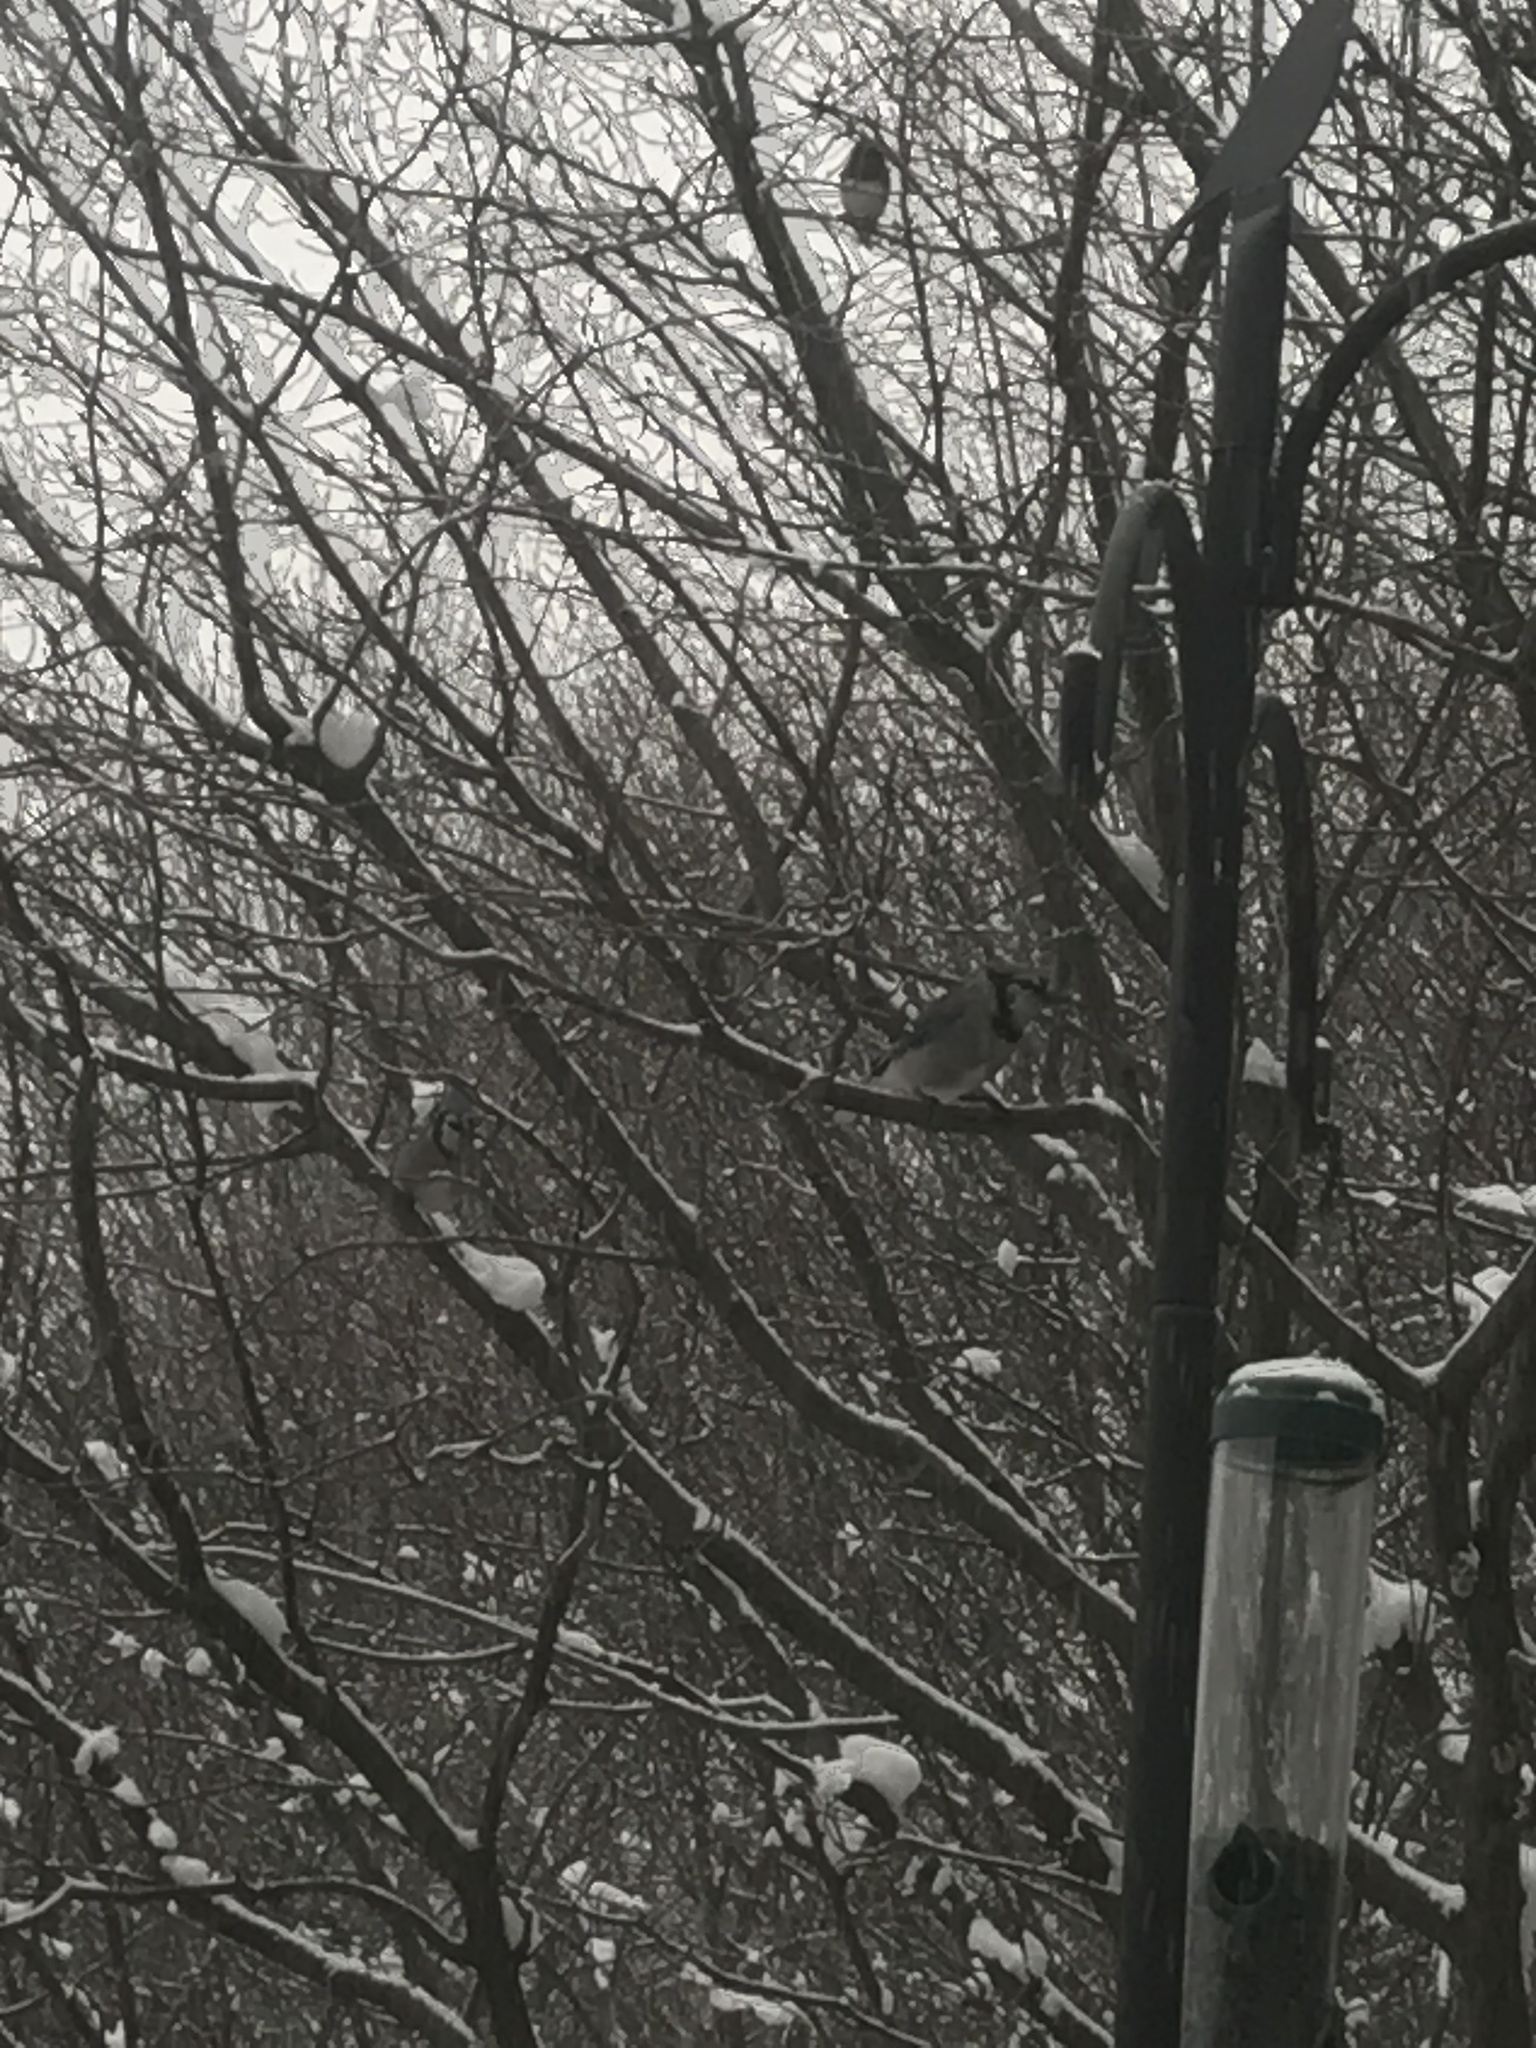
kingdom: Animalia
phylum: Chordata
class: Aves
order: Passeriformes
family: Corvidae
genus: Cyanocitta
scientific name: Cyanocitta cristata
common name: Blue jay
